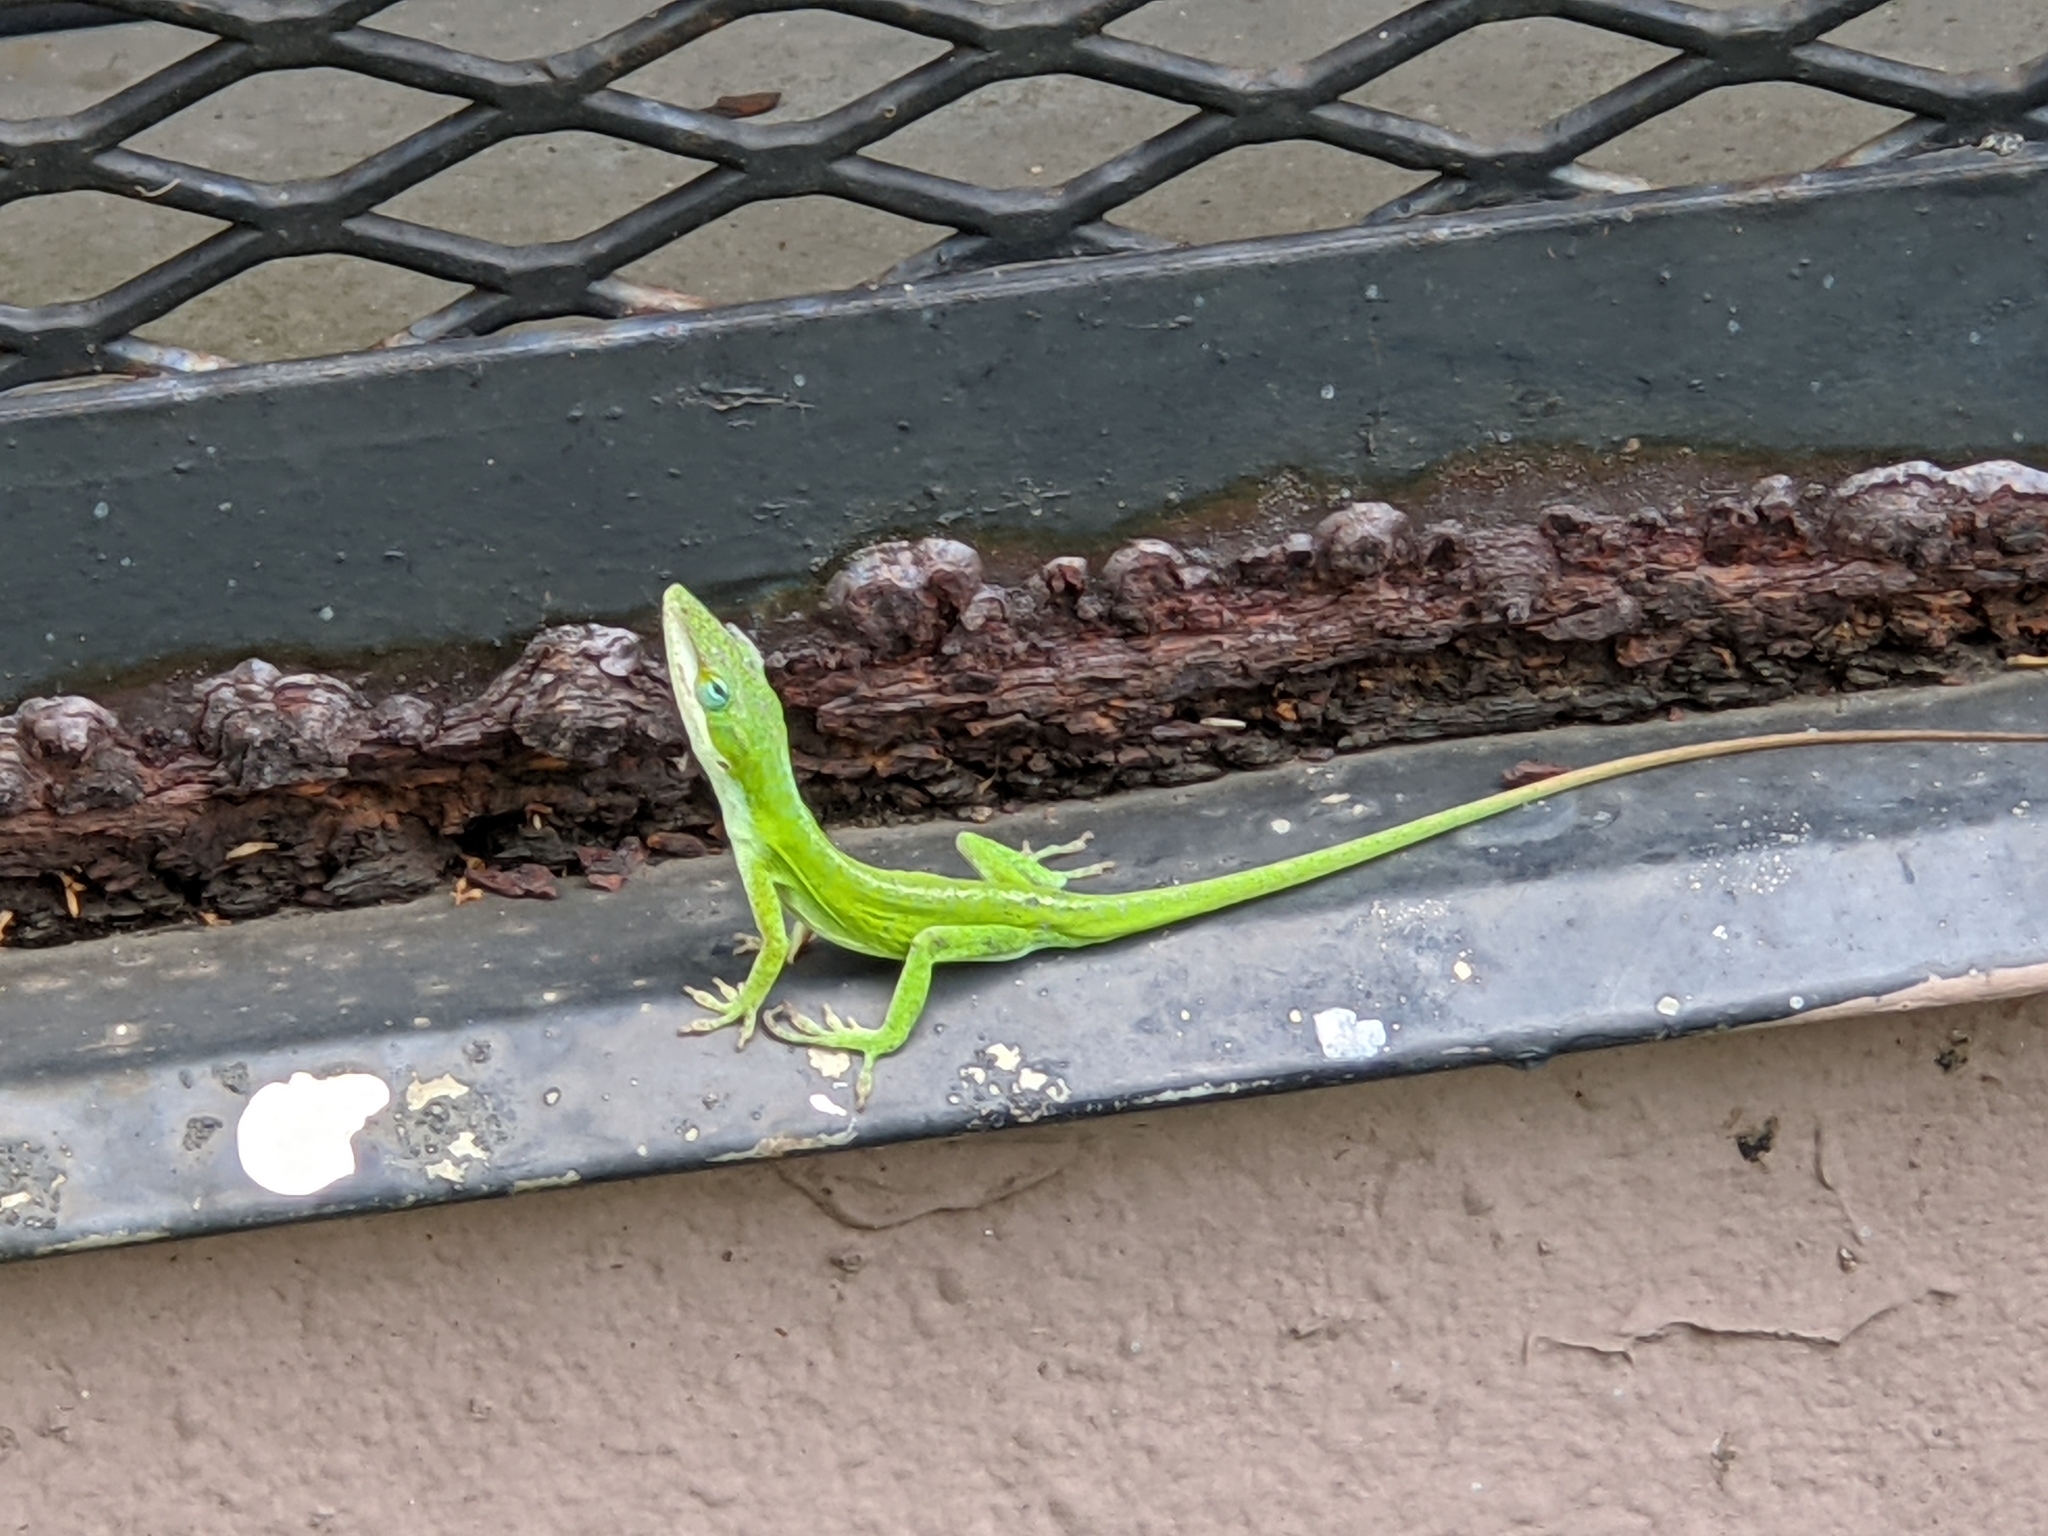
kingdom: Animalia
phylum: Chordata
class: Squamata
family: Dactyloidae
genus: Anolis
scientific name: Anolis carolinensis
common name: Green anole
